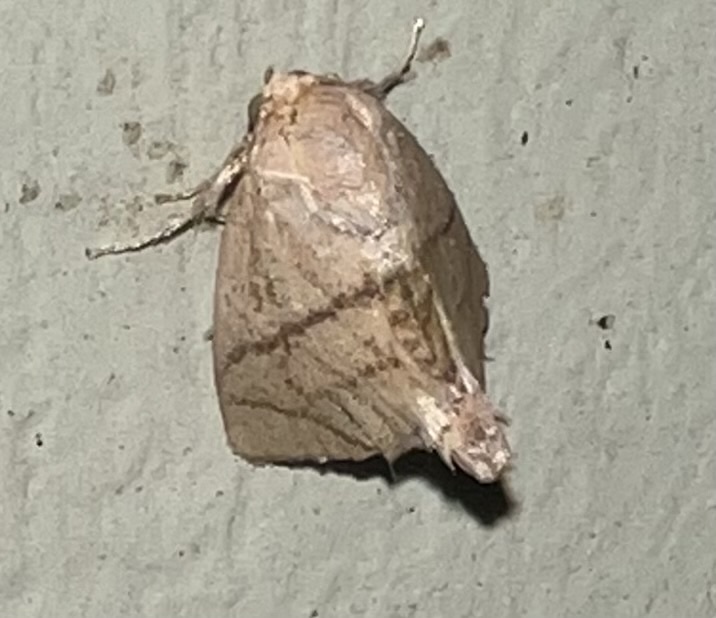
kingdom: Animalia
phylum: Arthropoda
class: Insecta
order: Lepidoptera
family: Limacodidae
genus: Apoda
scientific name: Apoda y-inversa
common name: Yellow-collared slug moth
